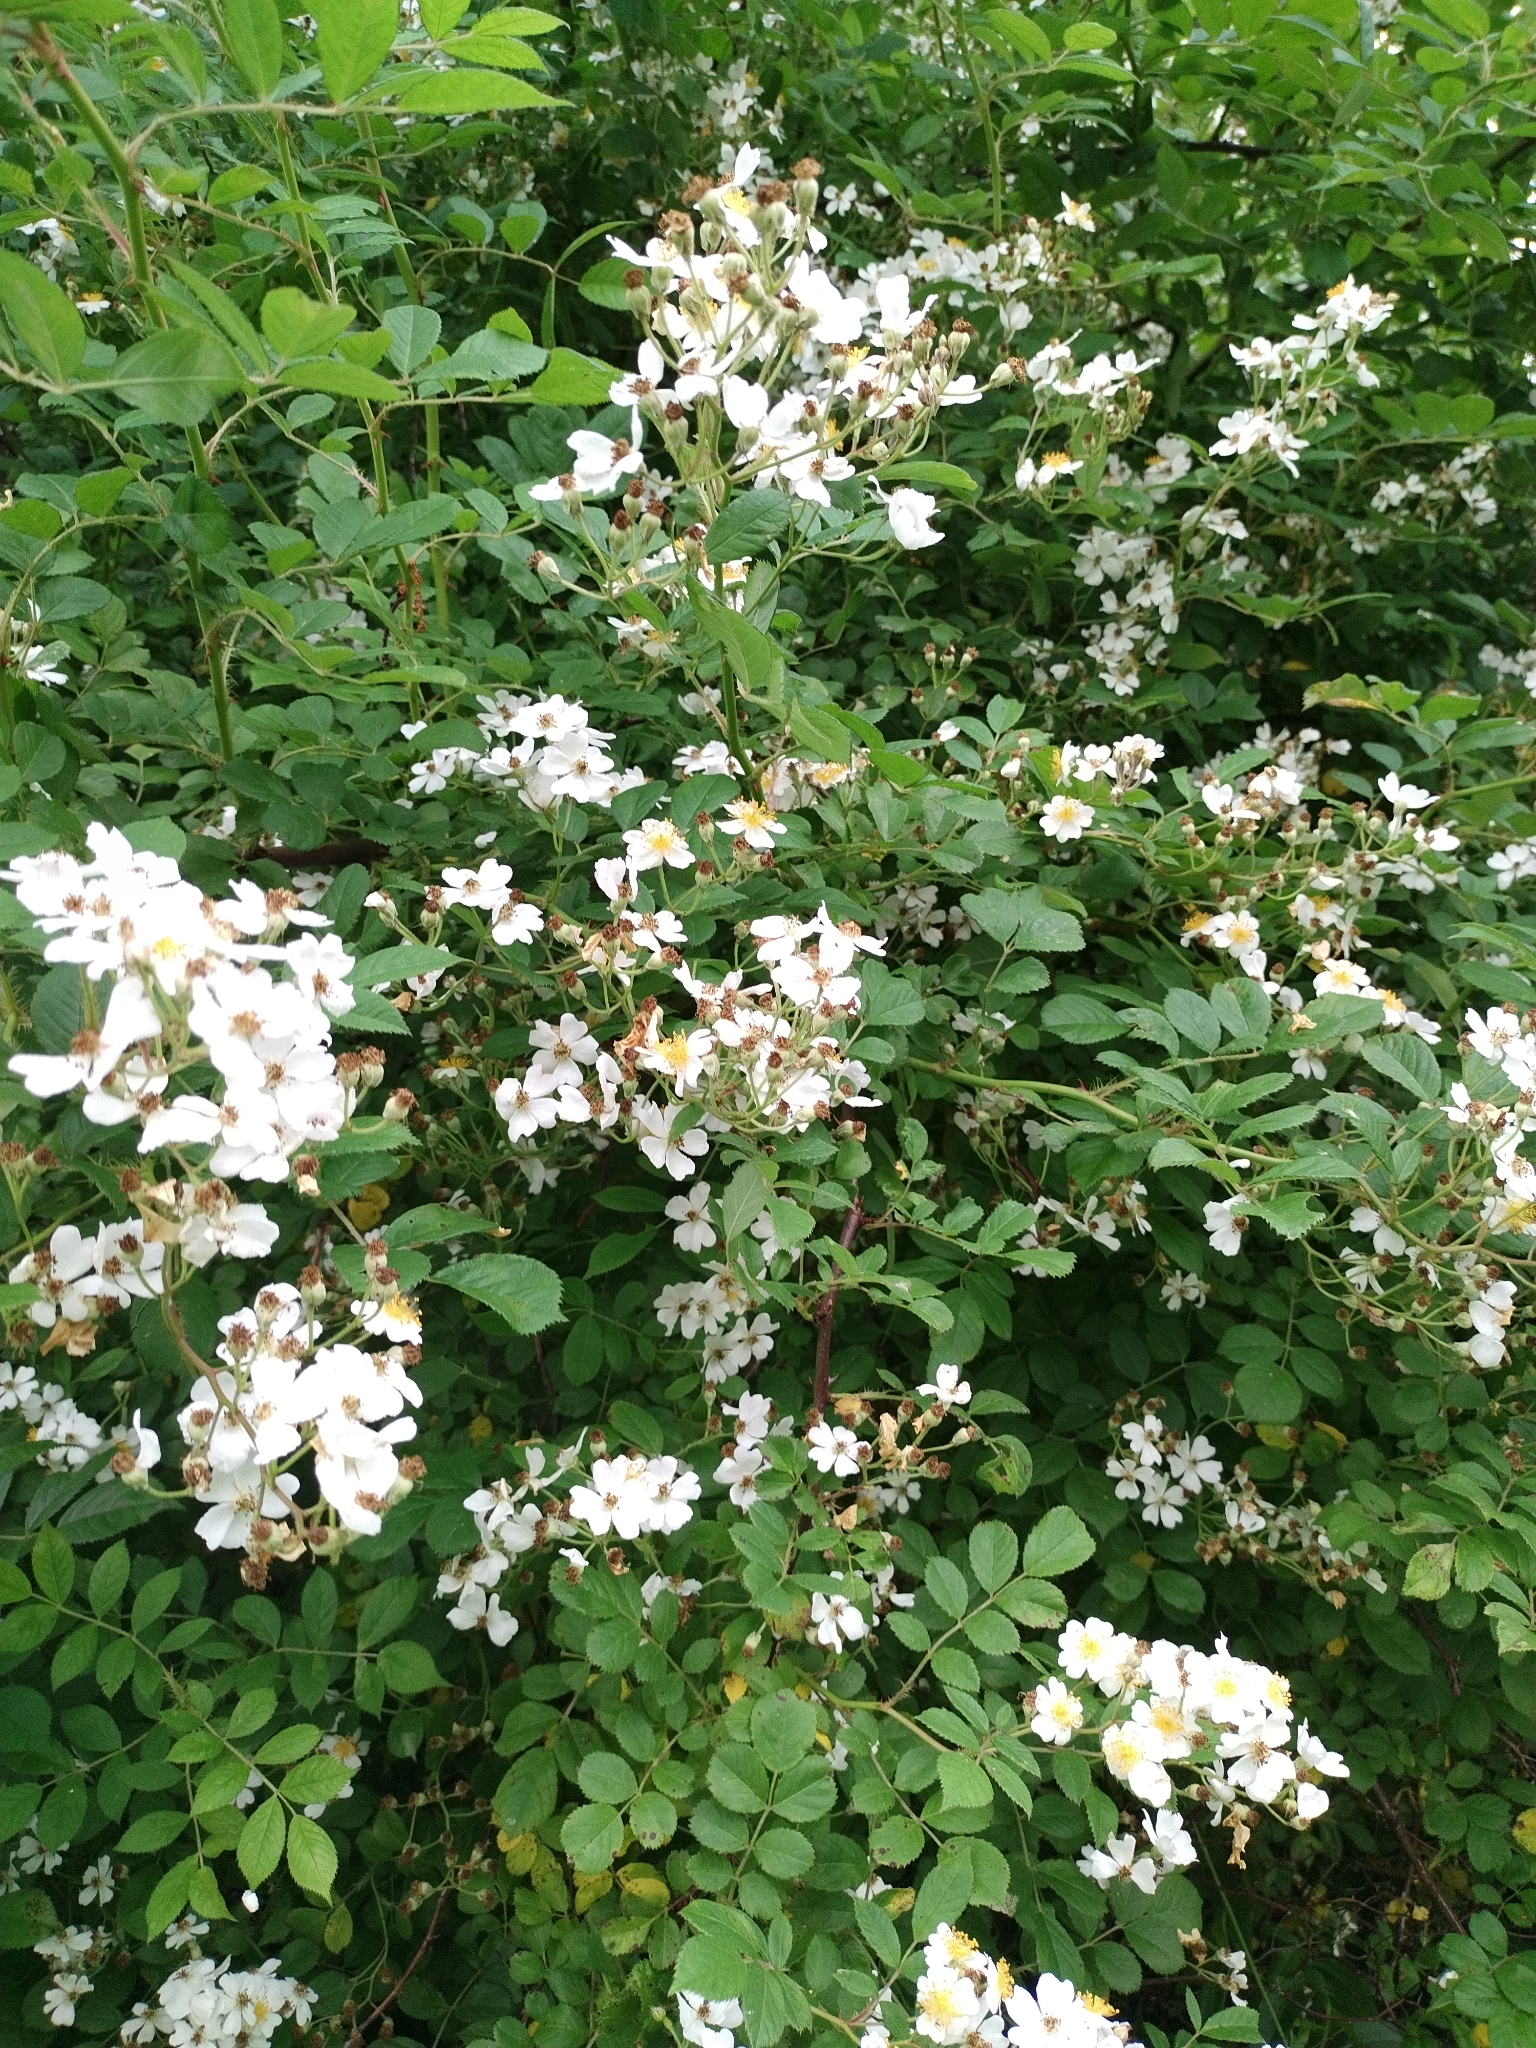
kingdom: Plantae
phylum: Tracheophyta
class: Magnoliopsida
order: Rosales
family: Rosaceae
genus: Rosa
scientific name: Rosa multiflora
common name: Multiflora rose
